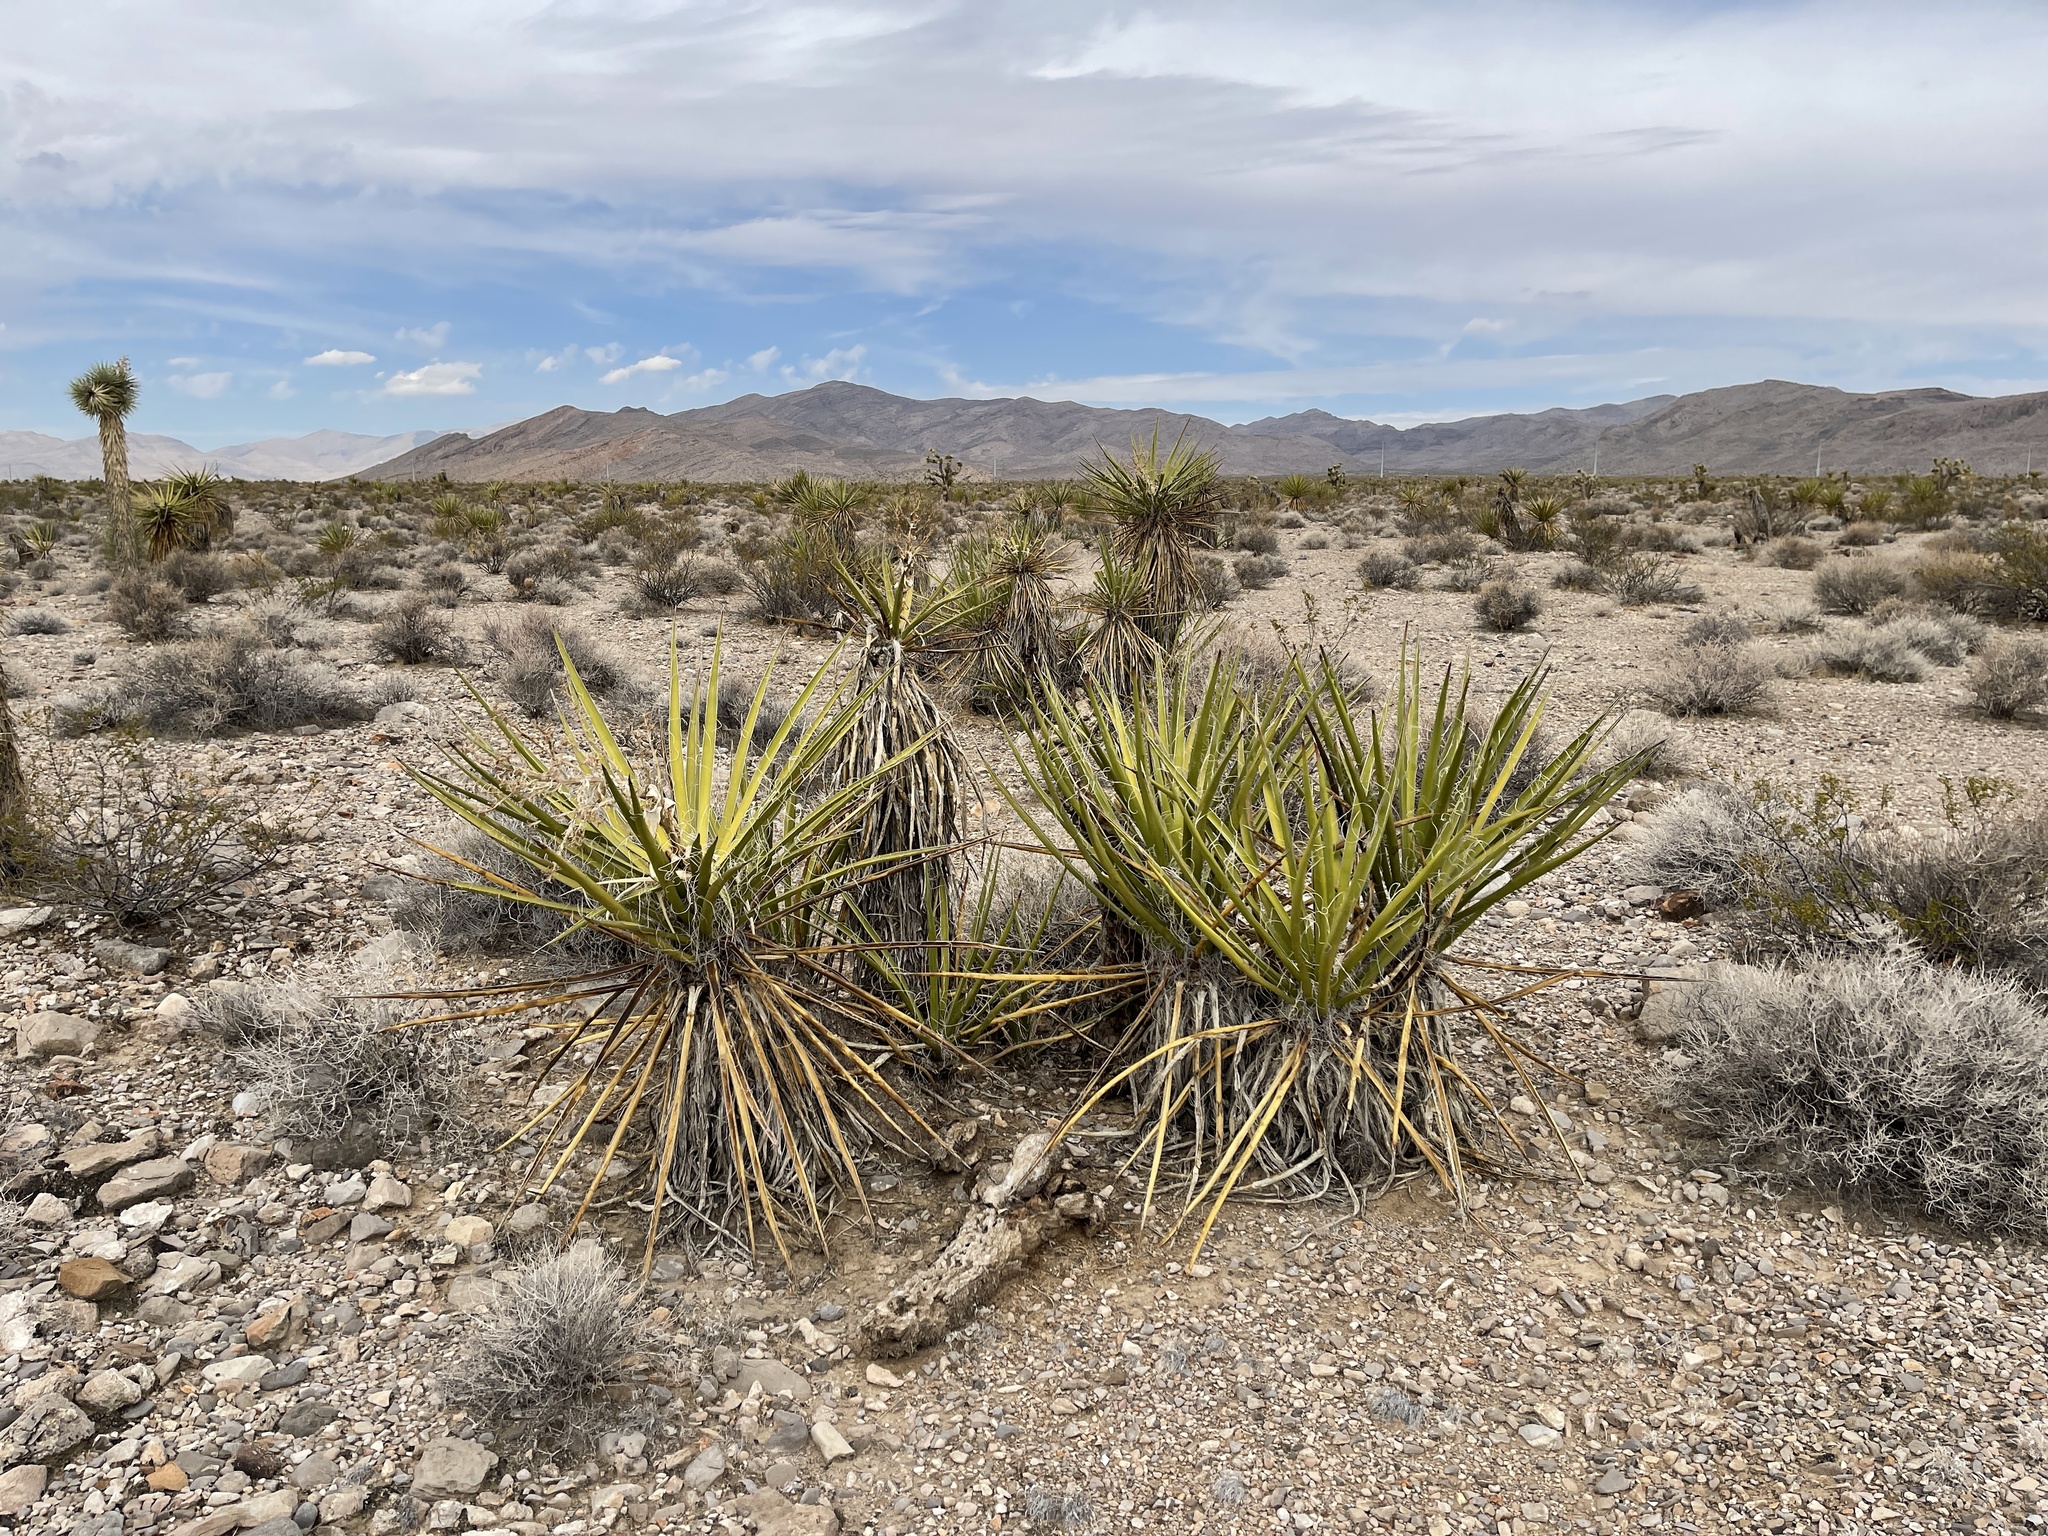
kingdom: Plantae
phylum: Tracheophyta
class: Liliopsida
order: Asparagales
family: Asparagaceae
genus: Yucca
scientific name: Yucca schidigera
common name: Mojave yucca
